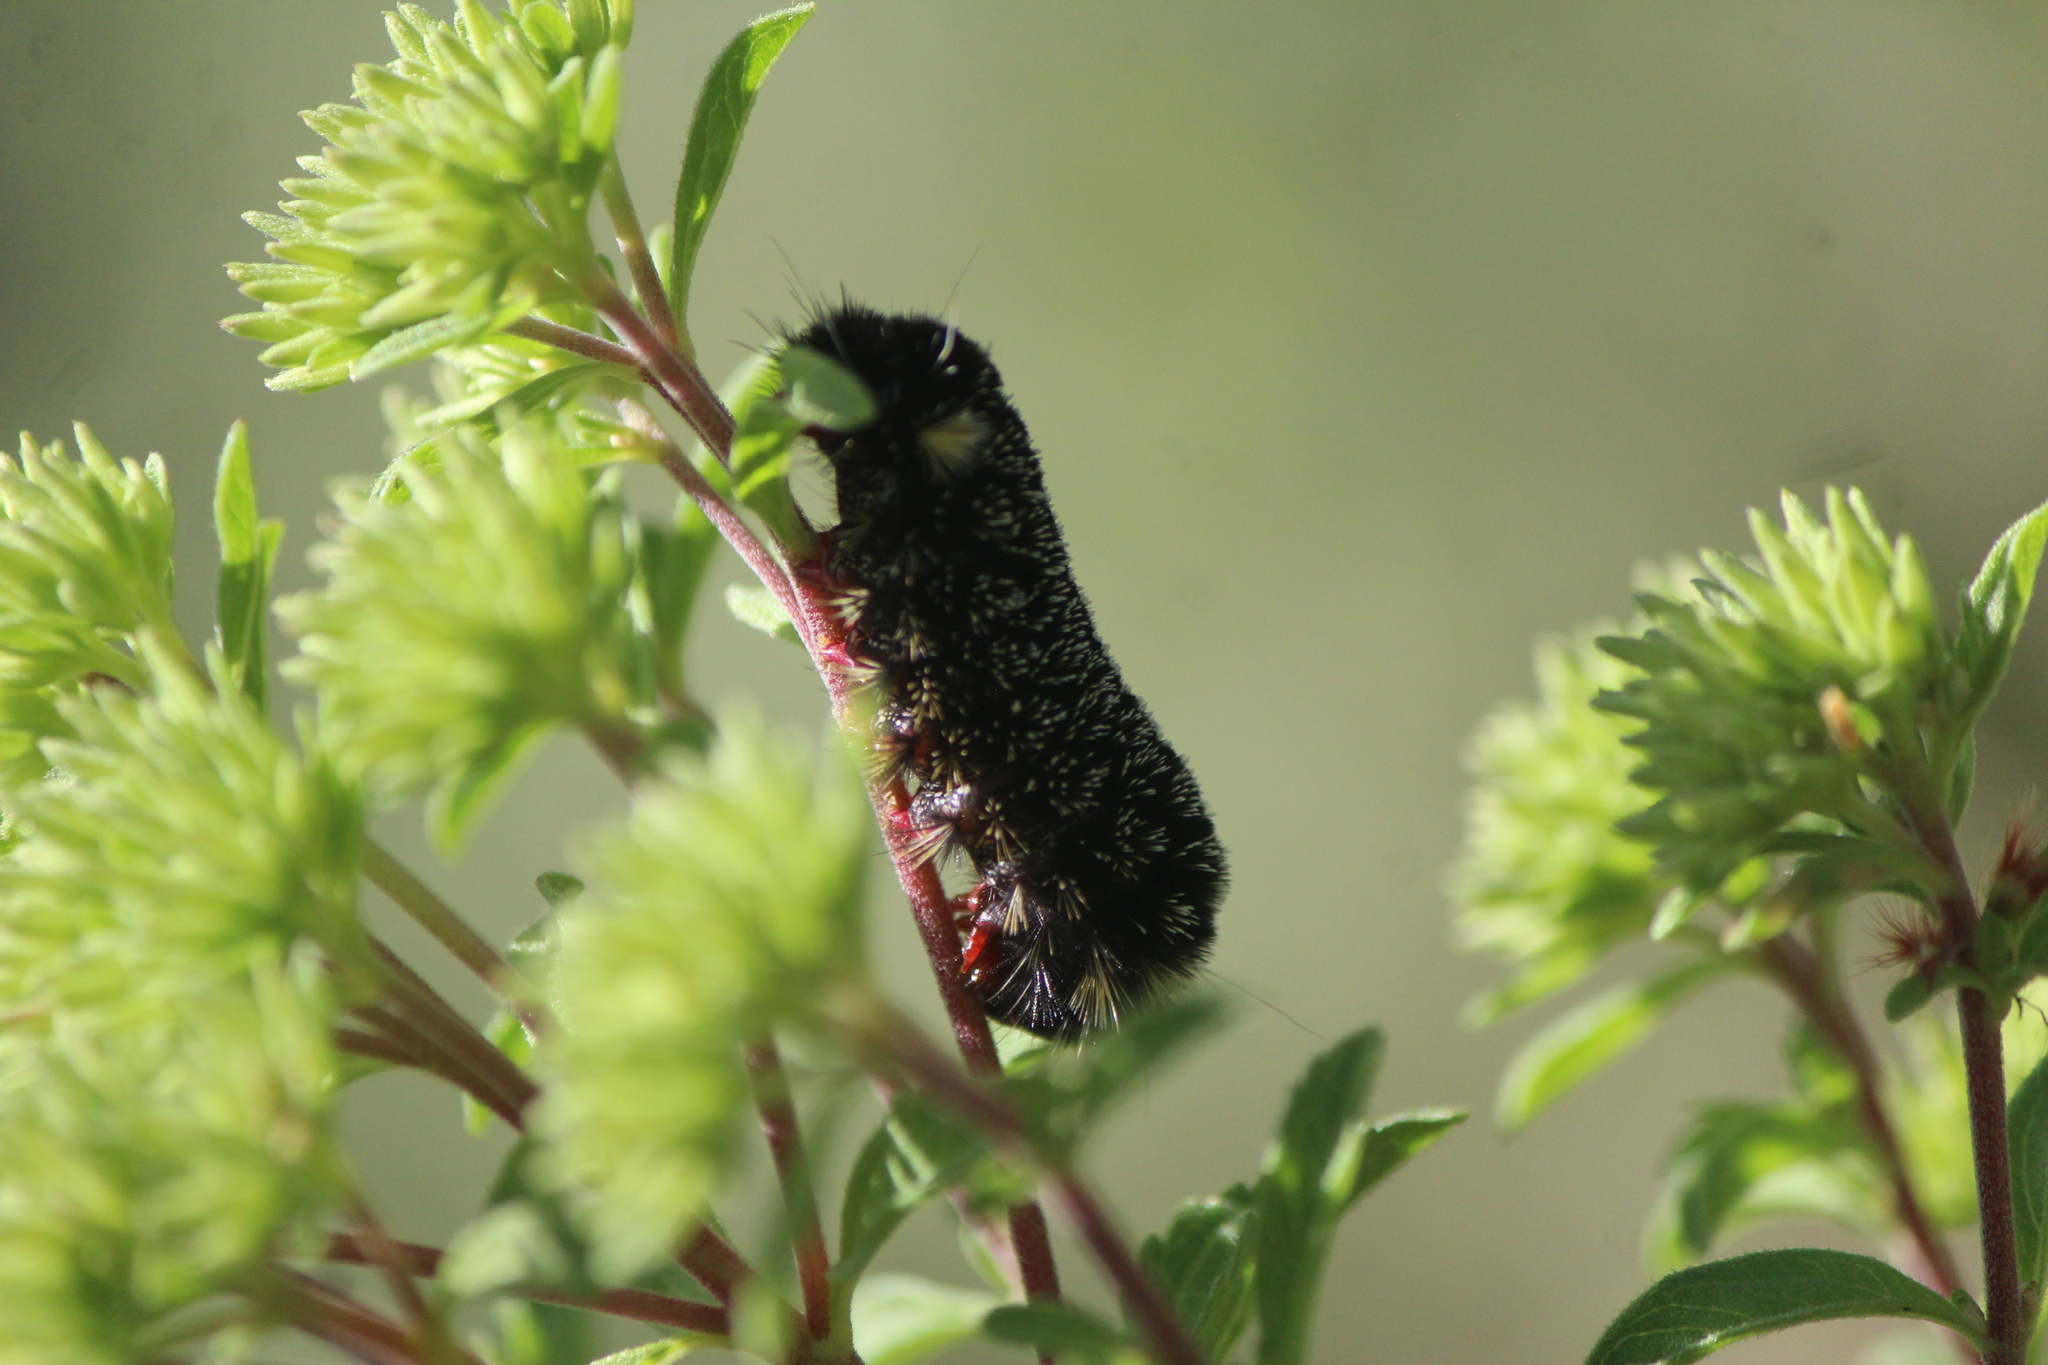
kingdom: Animalia
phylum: Arthropoda
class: Insecta
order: Lepidoptera
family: Erebidae
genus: Hypocrisias
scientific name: Hypocrisias minima
